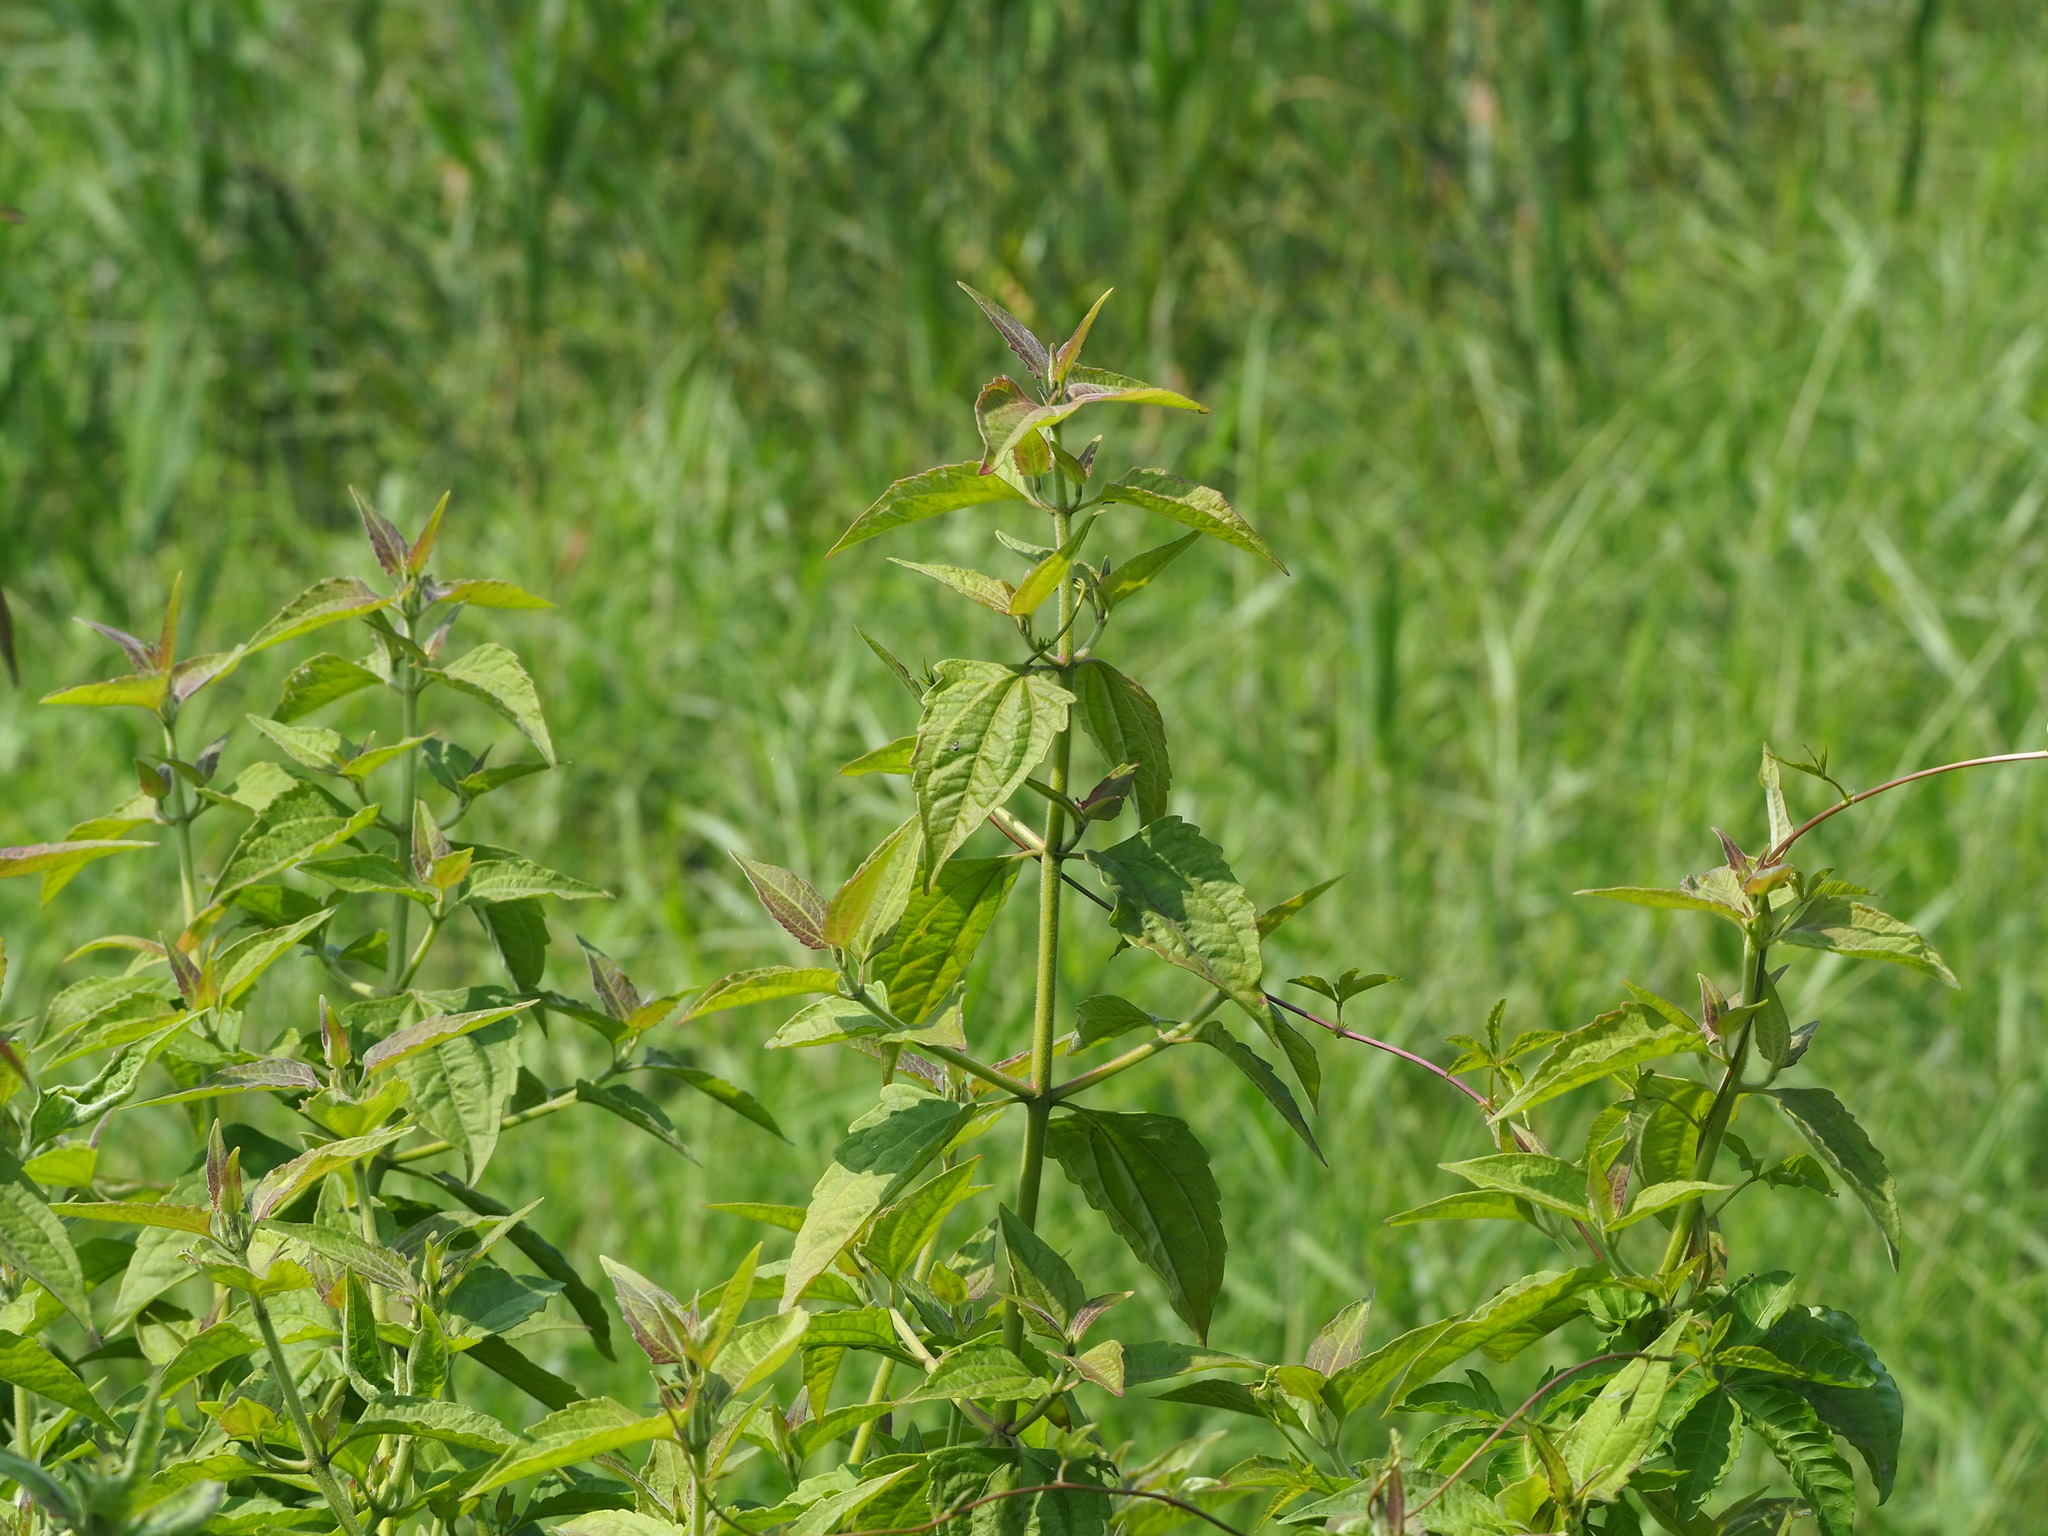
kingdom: Plantae
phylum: Tracheophyta
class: Magnoliopsida
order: Asterales
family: Asteraceae
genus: Chromolaena
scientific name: Chromolaena odorata
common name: Siamweed
